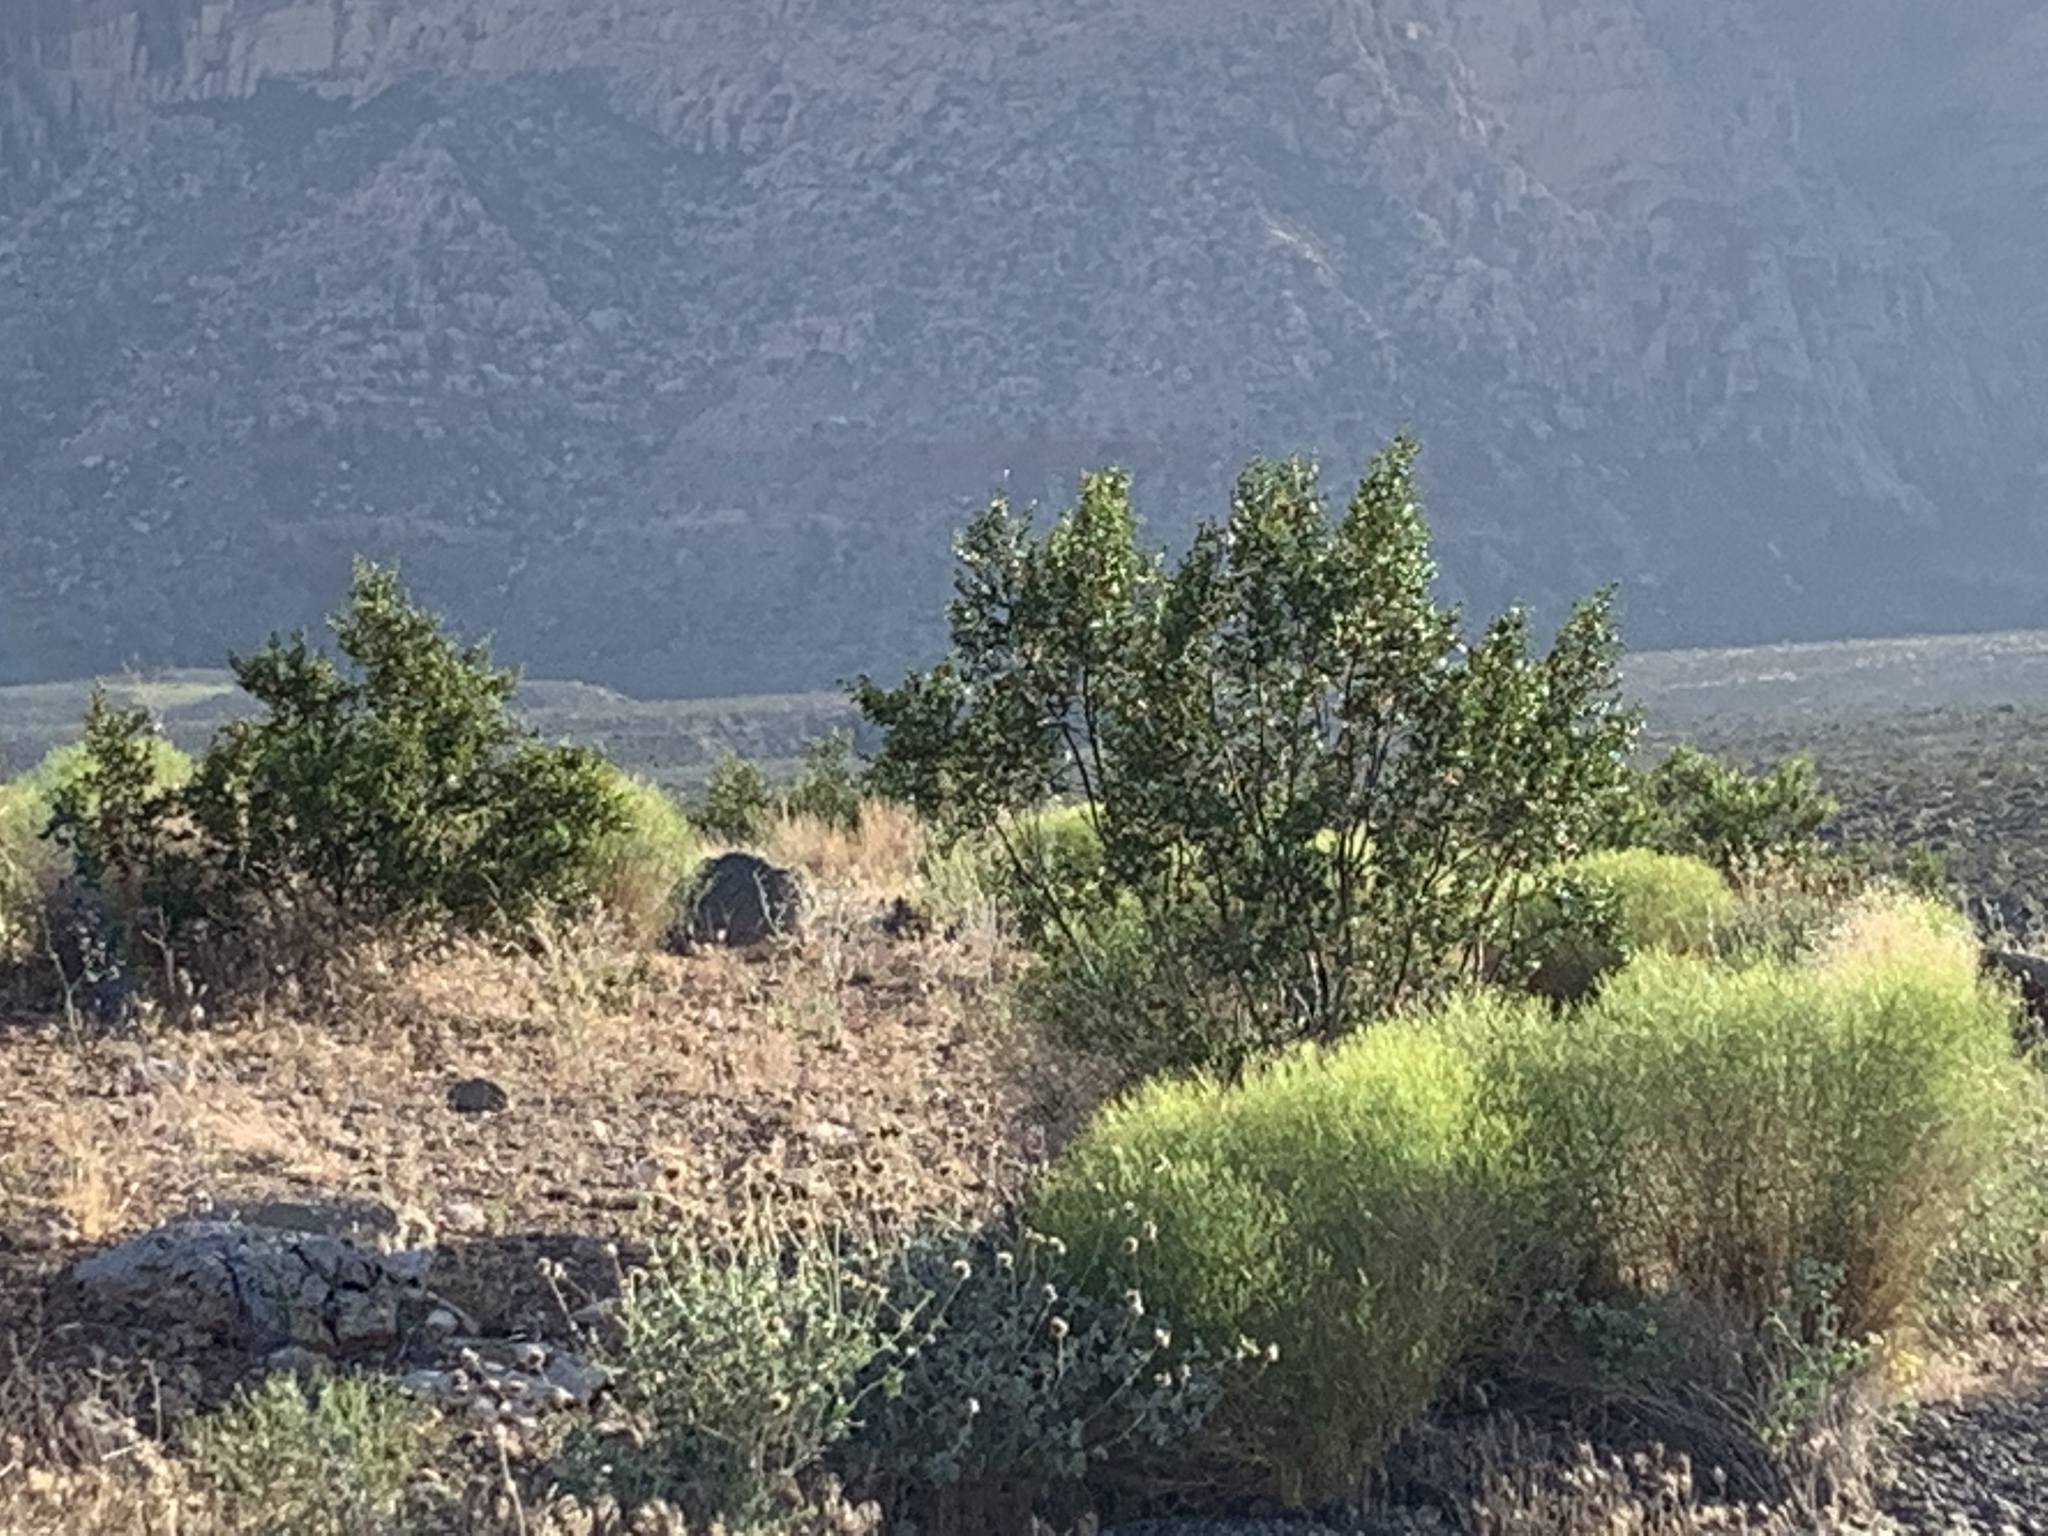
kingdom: Plantae
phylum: Tracheophyta
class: Magnoliopsida
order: Zygophyllales
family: Zygophyllaceae
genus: Larrea
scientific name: Larrea tridentata
